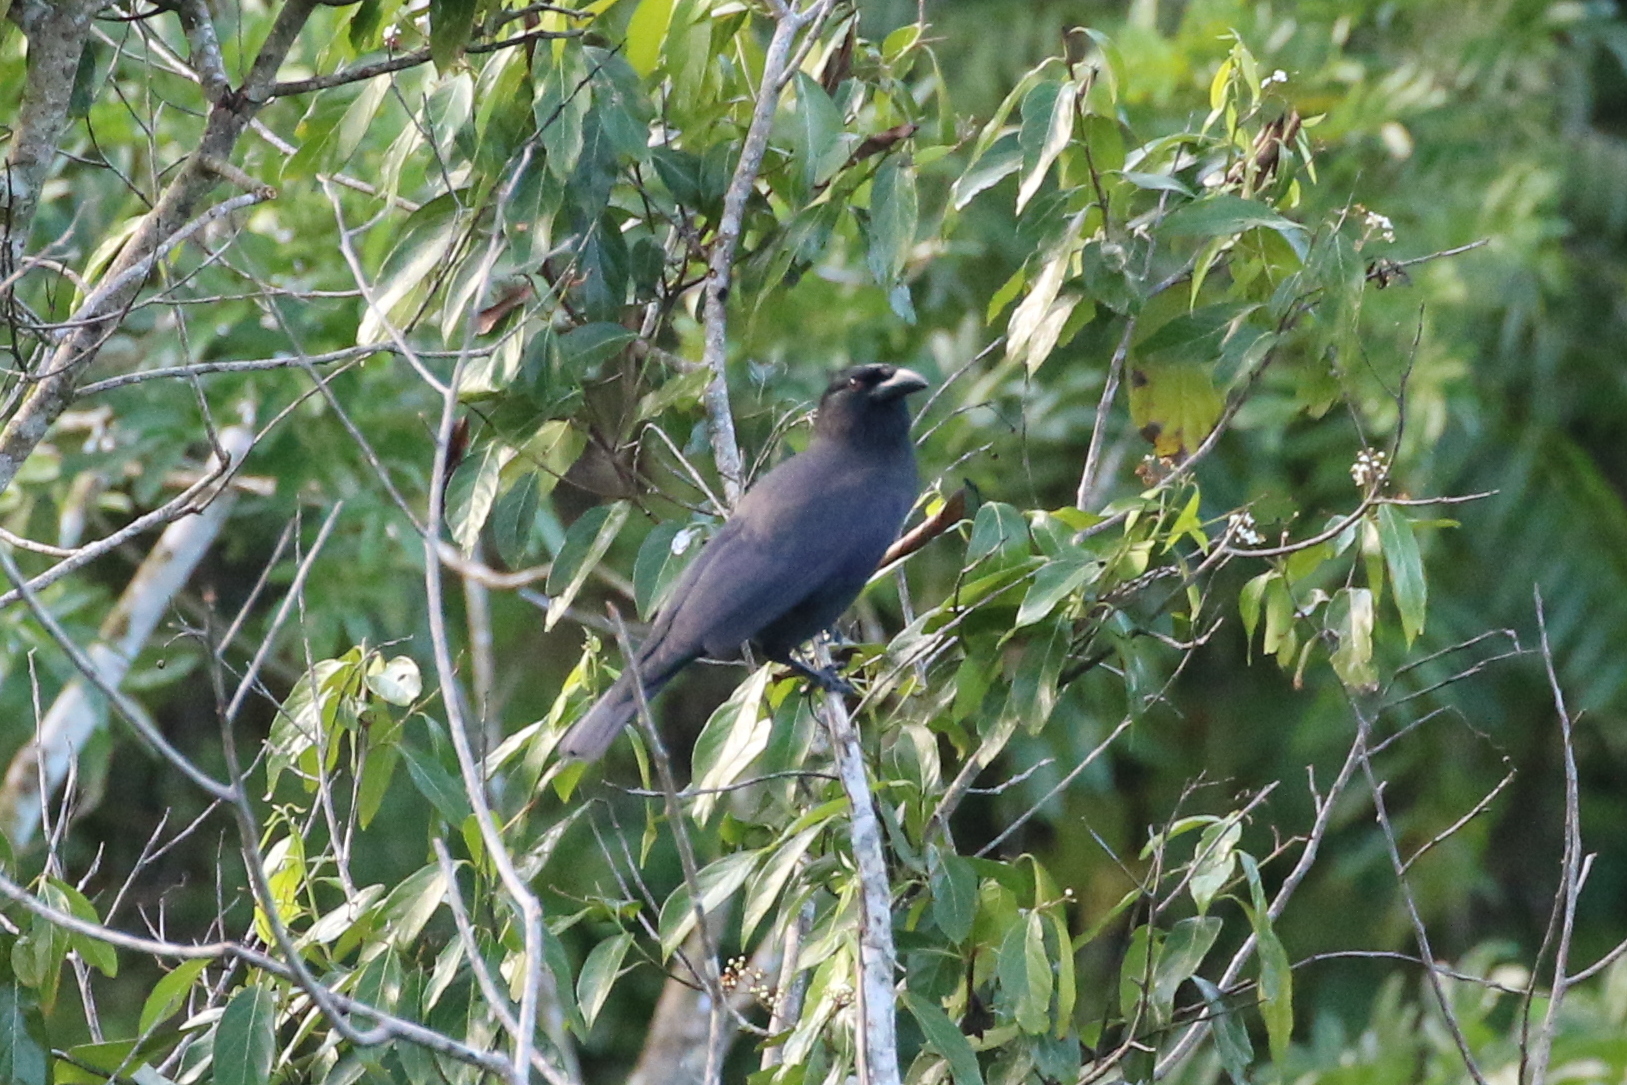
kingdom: Animalia
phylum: Chordata
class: Aves
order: Passeriformes
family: Corvidae
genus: Corvus
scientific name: Corvus jamaicensis
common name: Jamaican crow
